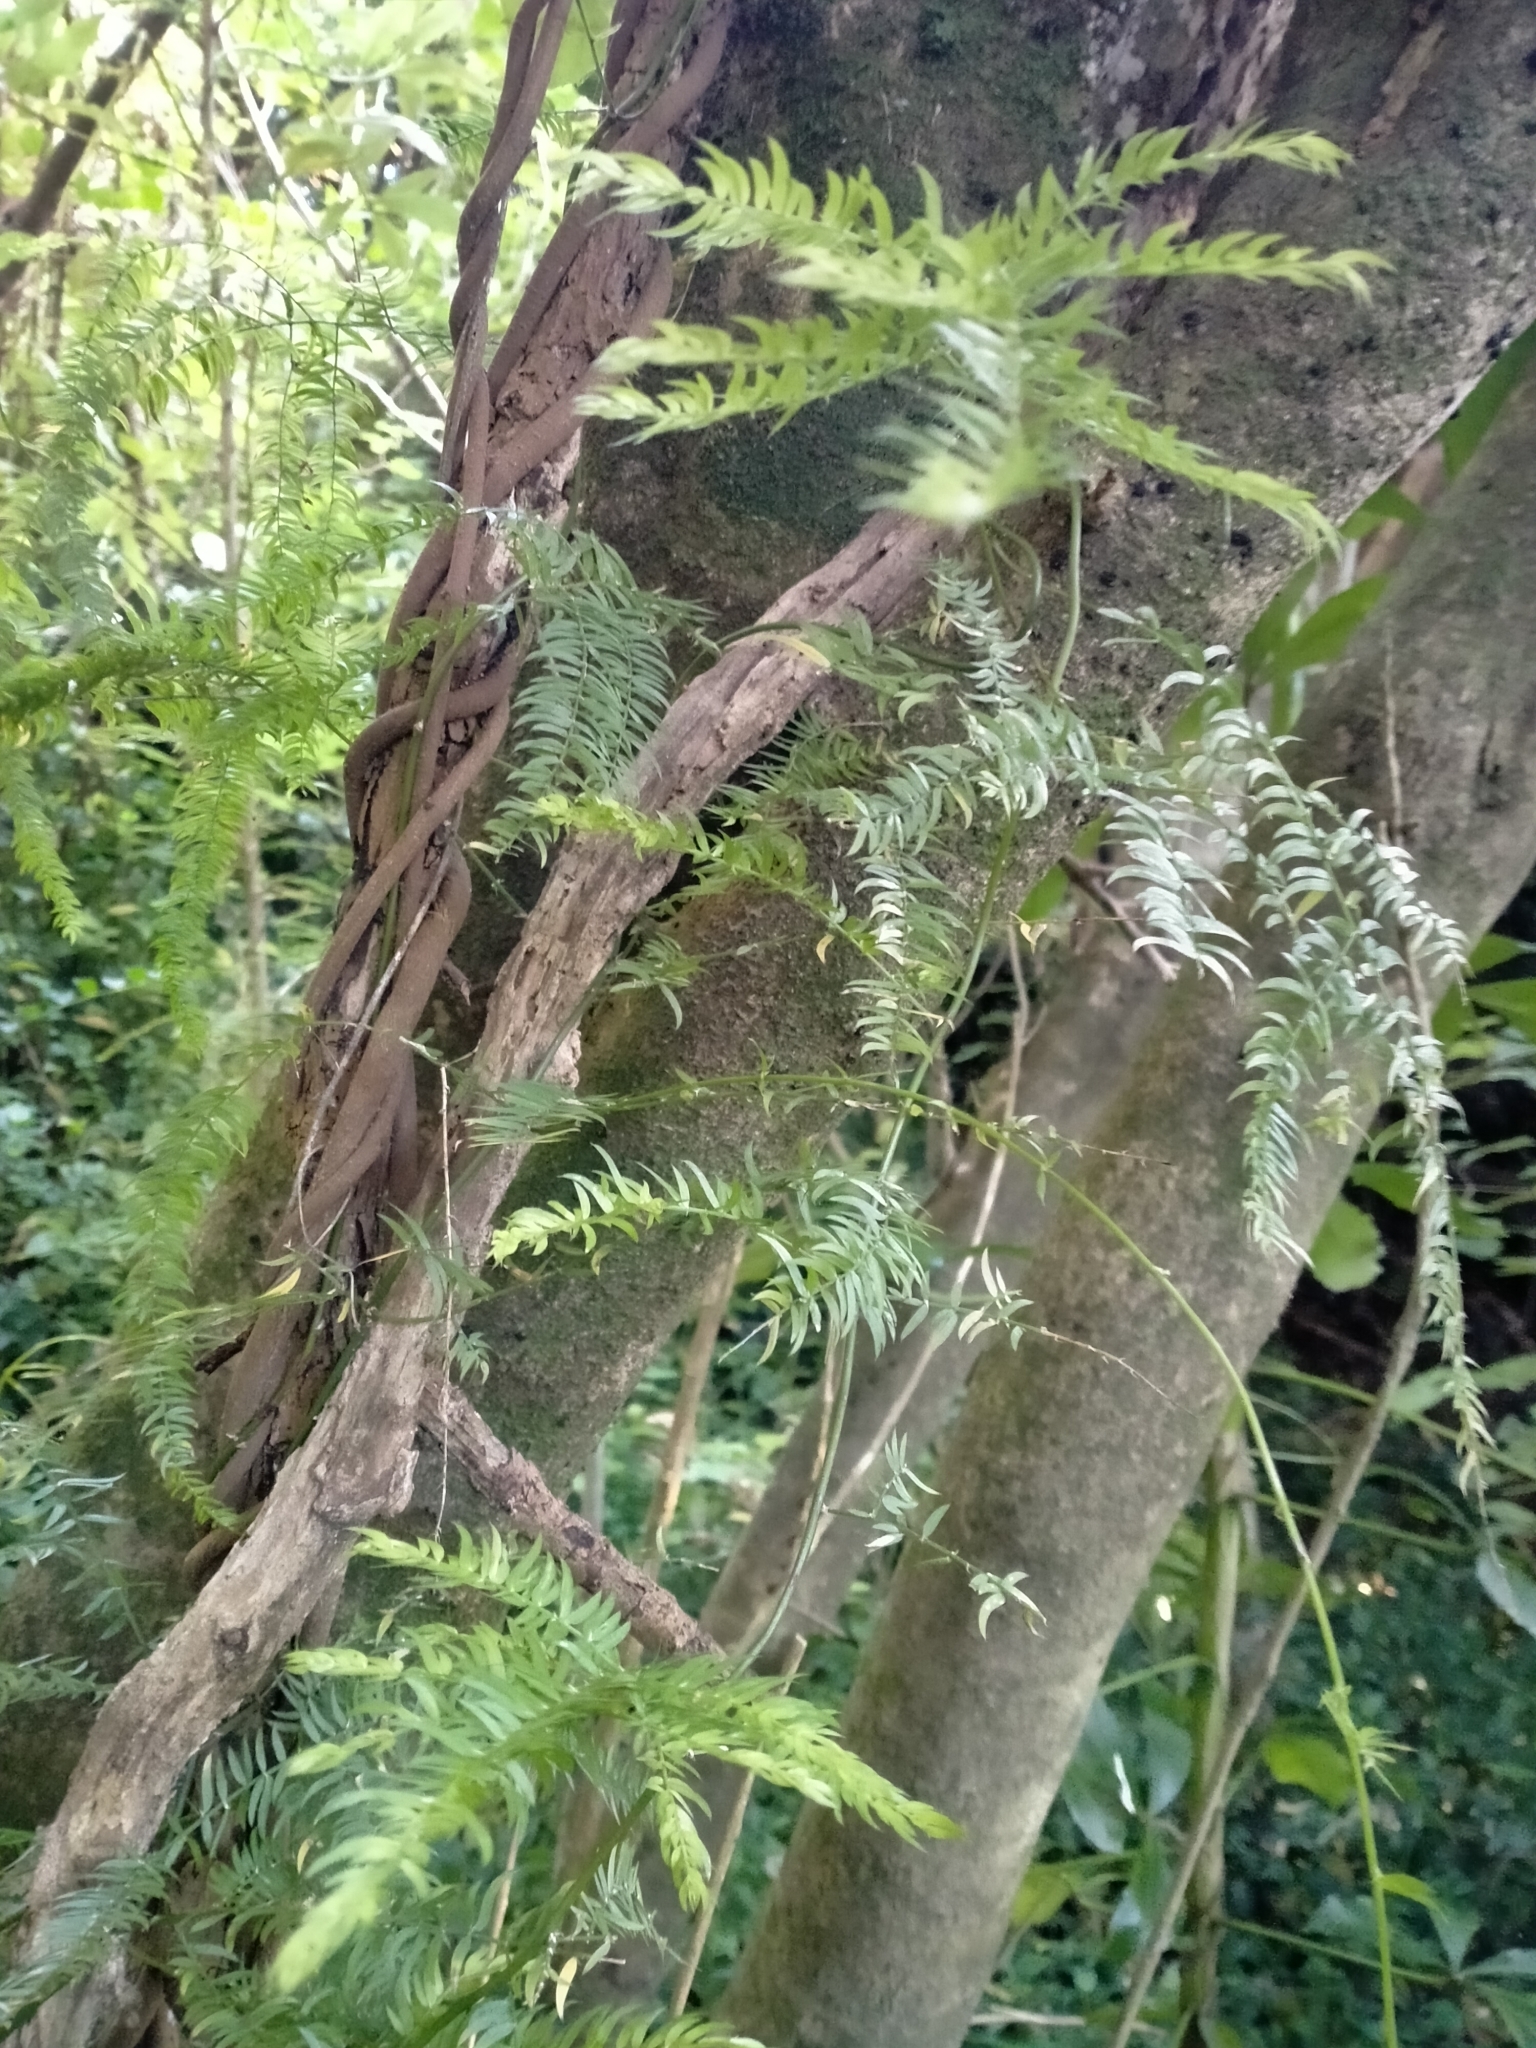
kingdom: Plantae
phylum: Tracheophyta
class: Liliopsida
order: Asparagales
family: Asparagaceae
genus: Asparagus
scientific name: Asparagus scandens
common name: Asparagus-fern
